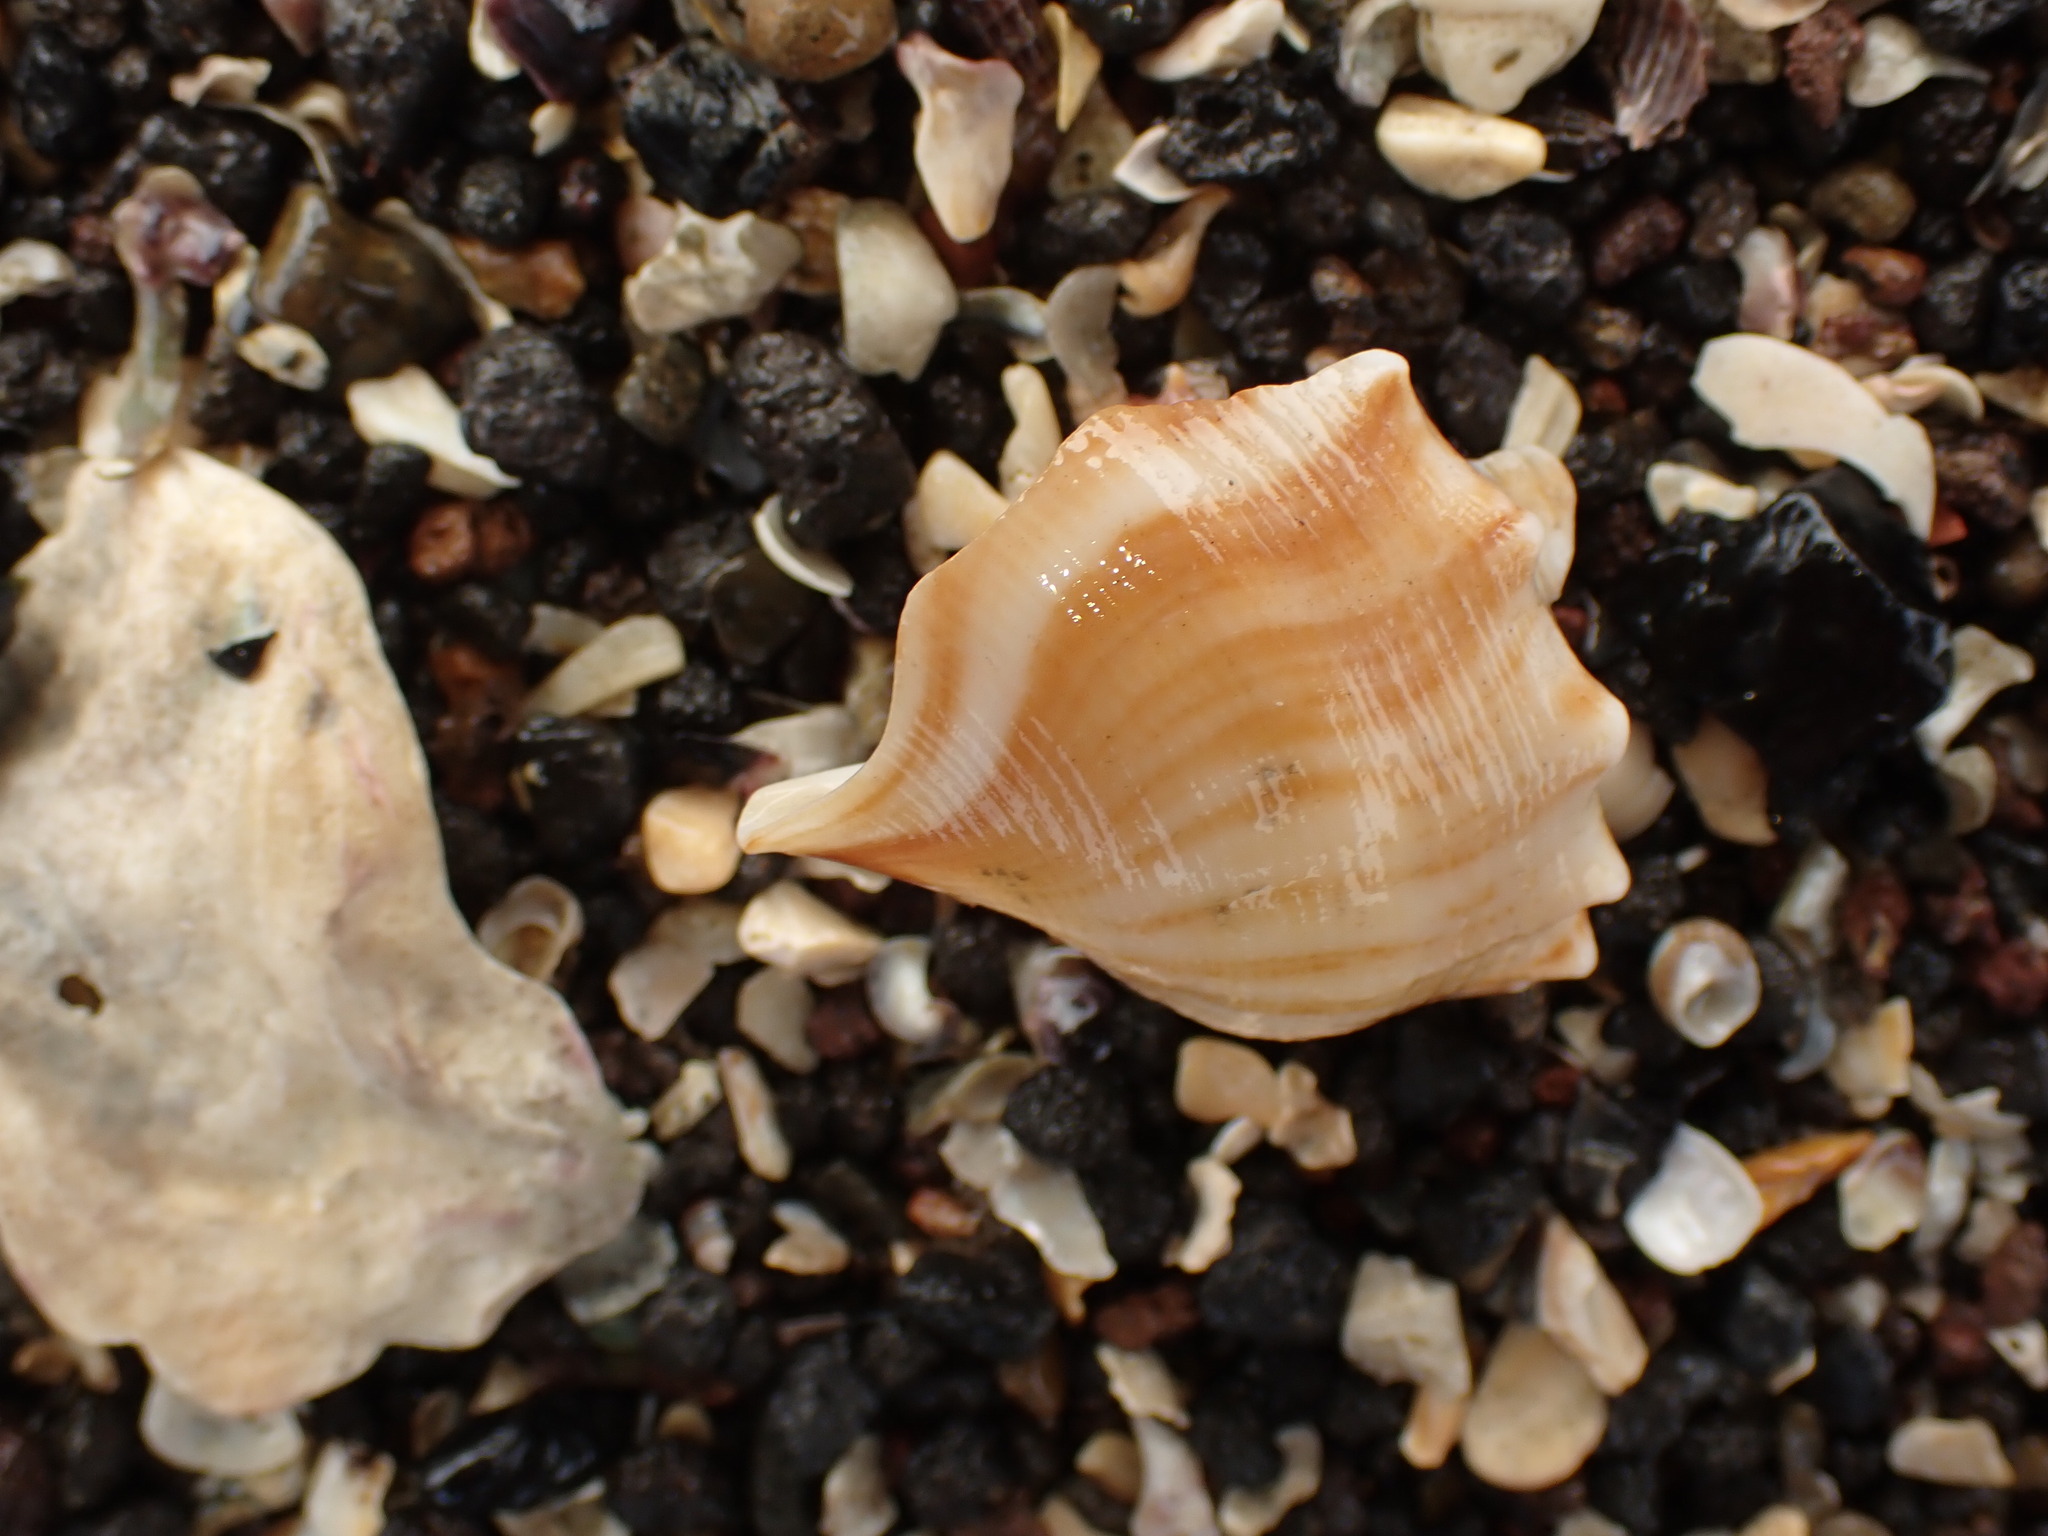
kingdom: Animalia
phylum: Mollusca
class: Gastropoda
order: Littorinimorpha
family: Struthiolariidae
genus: Struthiolaria
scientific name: Struthiolaria papulosa
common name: Large ostrich foot
